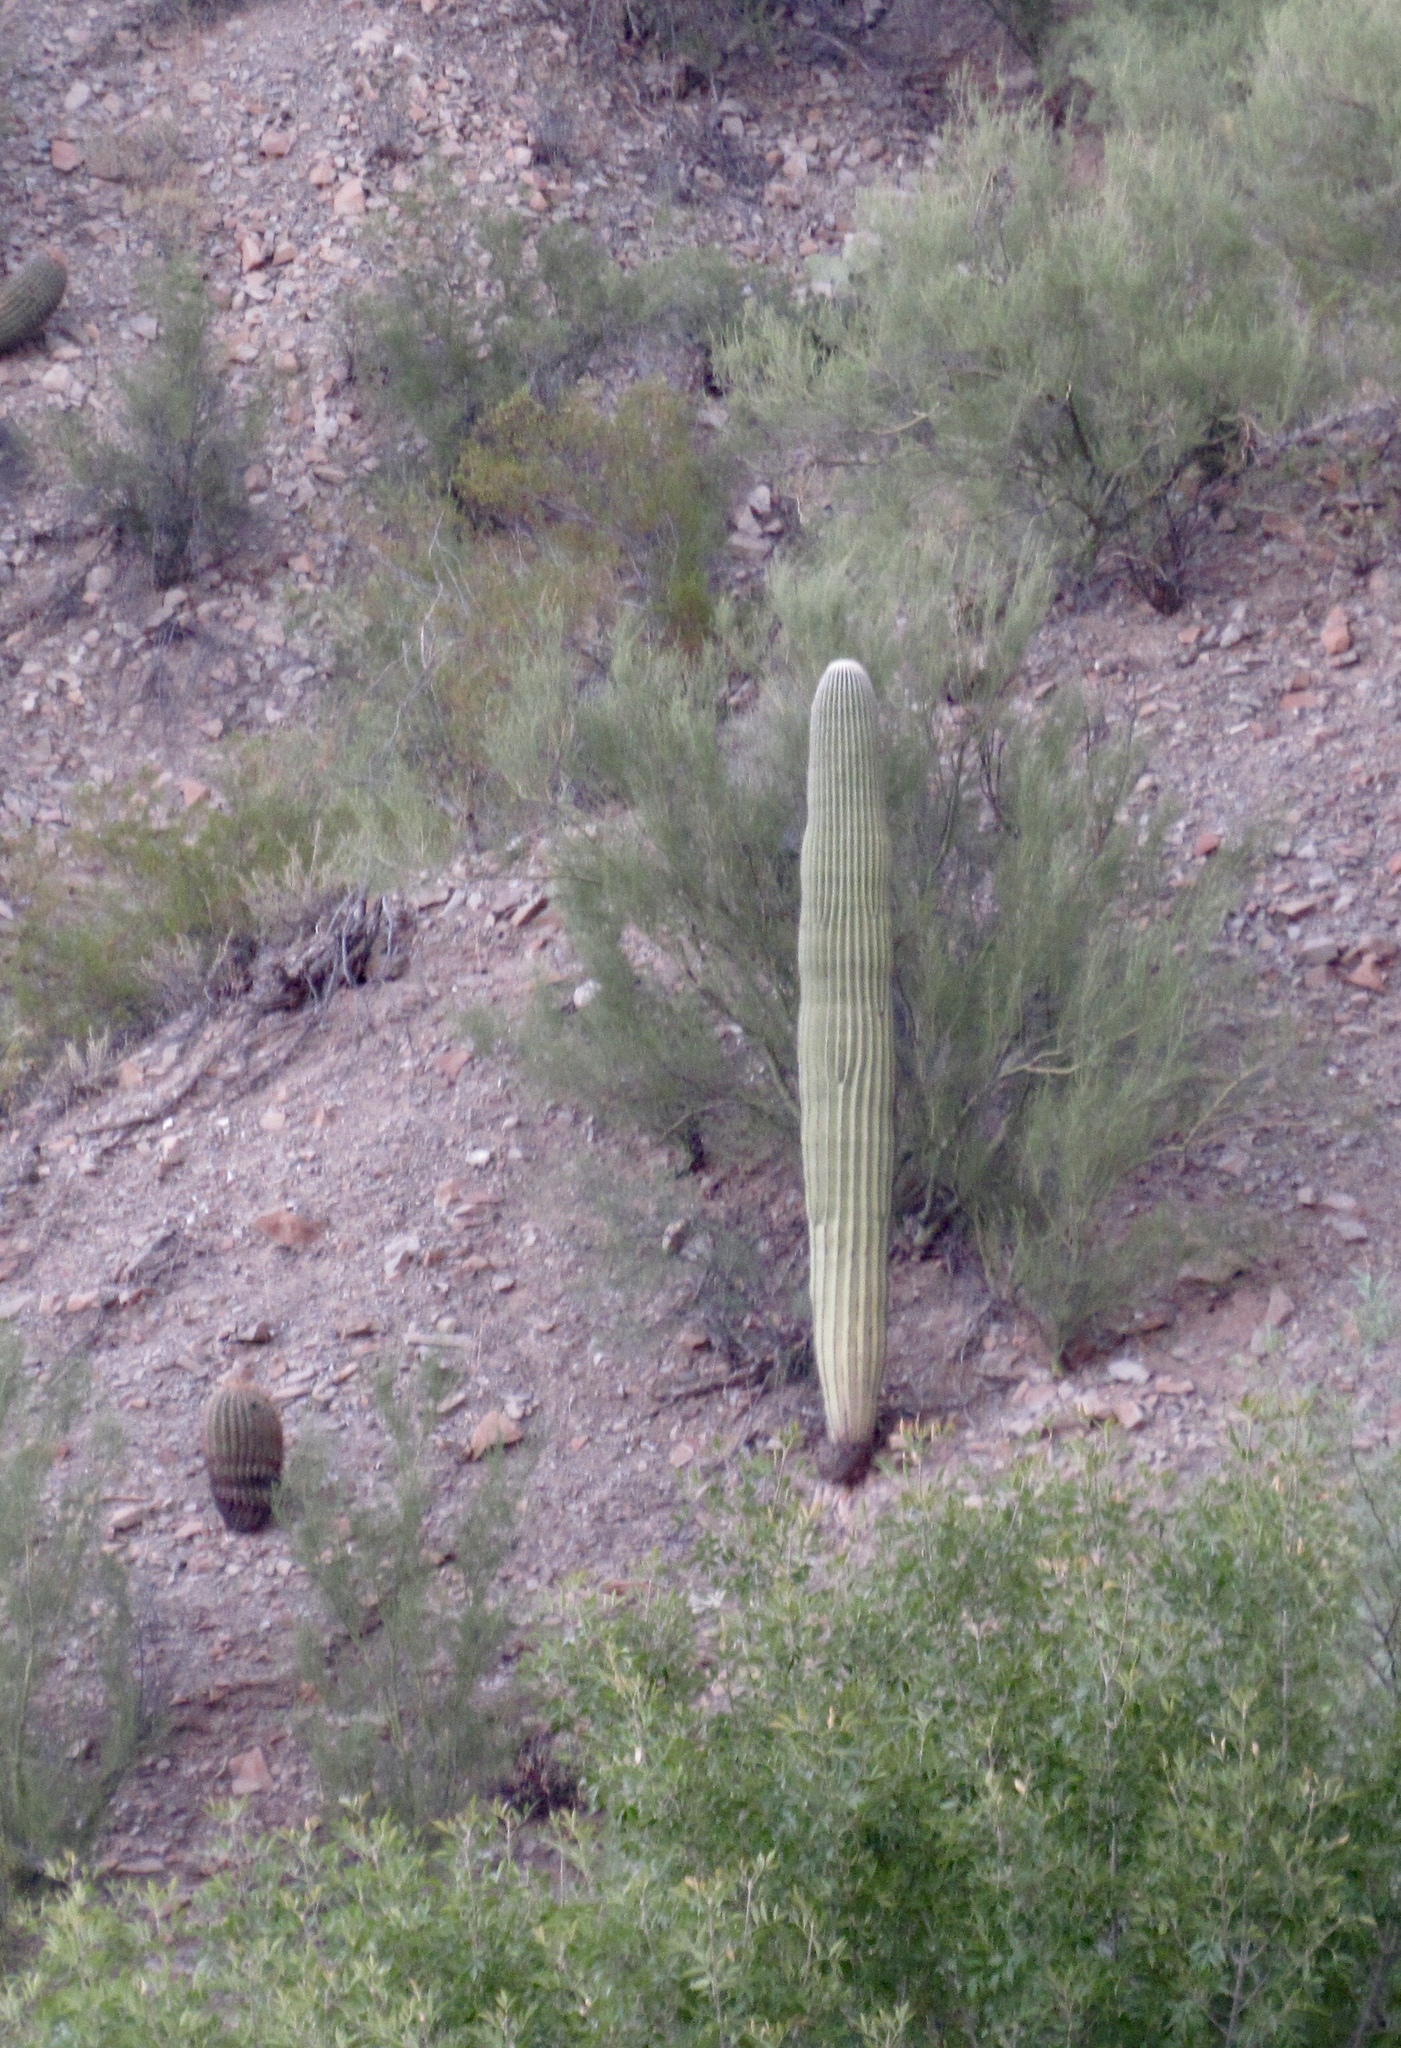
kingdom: Plantae
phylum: Tracheophyta
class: Magnoliopsida
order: Caryophyllales
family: Cactaceae
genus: Carnegiea
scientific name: Carnegiea gigantea
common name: Saguaro
